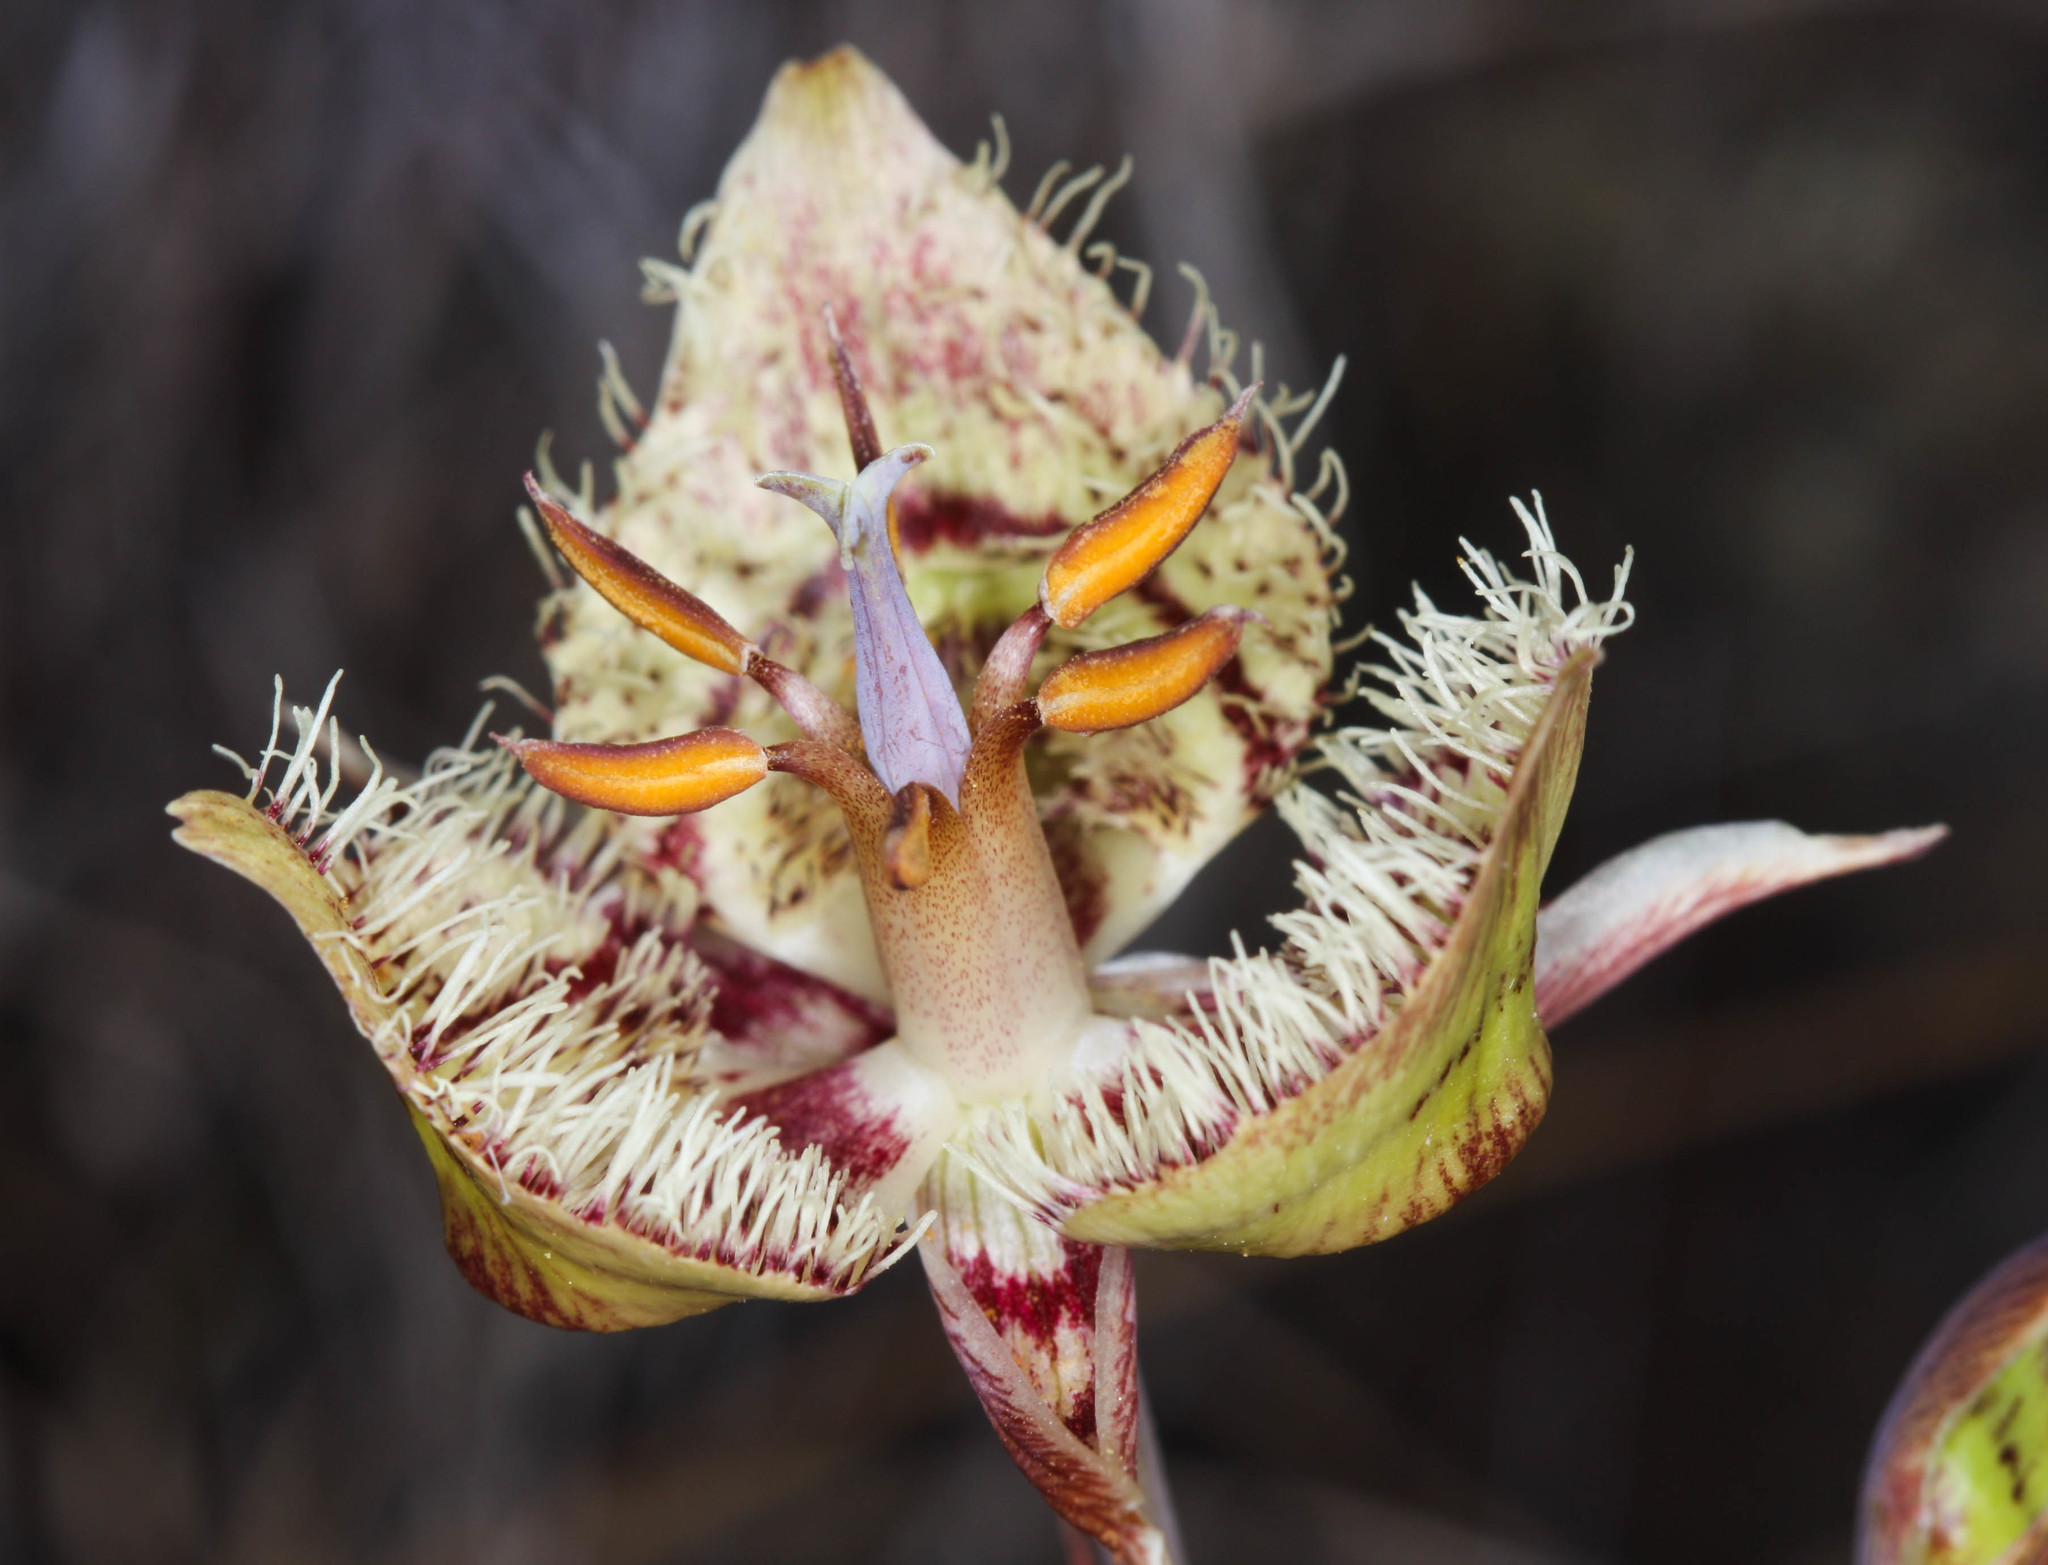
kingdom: Plantae
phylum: Tracheophyta
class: Liliopsida
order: Liliales
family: Liliaceae
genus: Calochortus
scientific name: Calochortus tiburonensis
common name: Tiburon mariposa-lily
